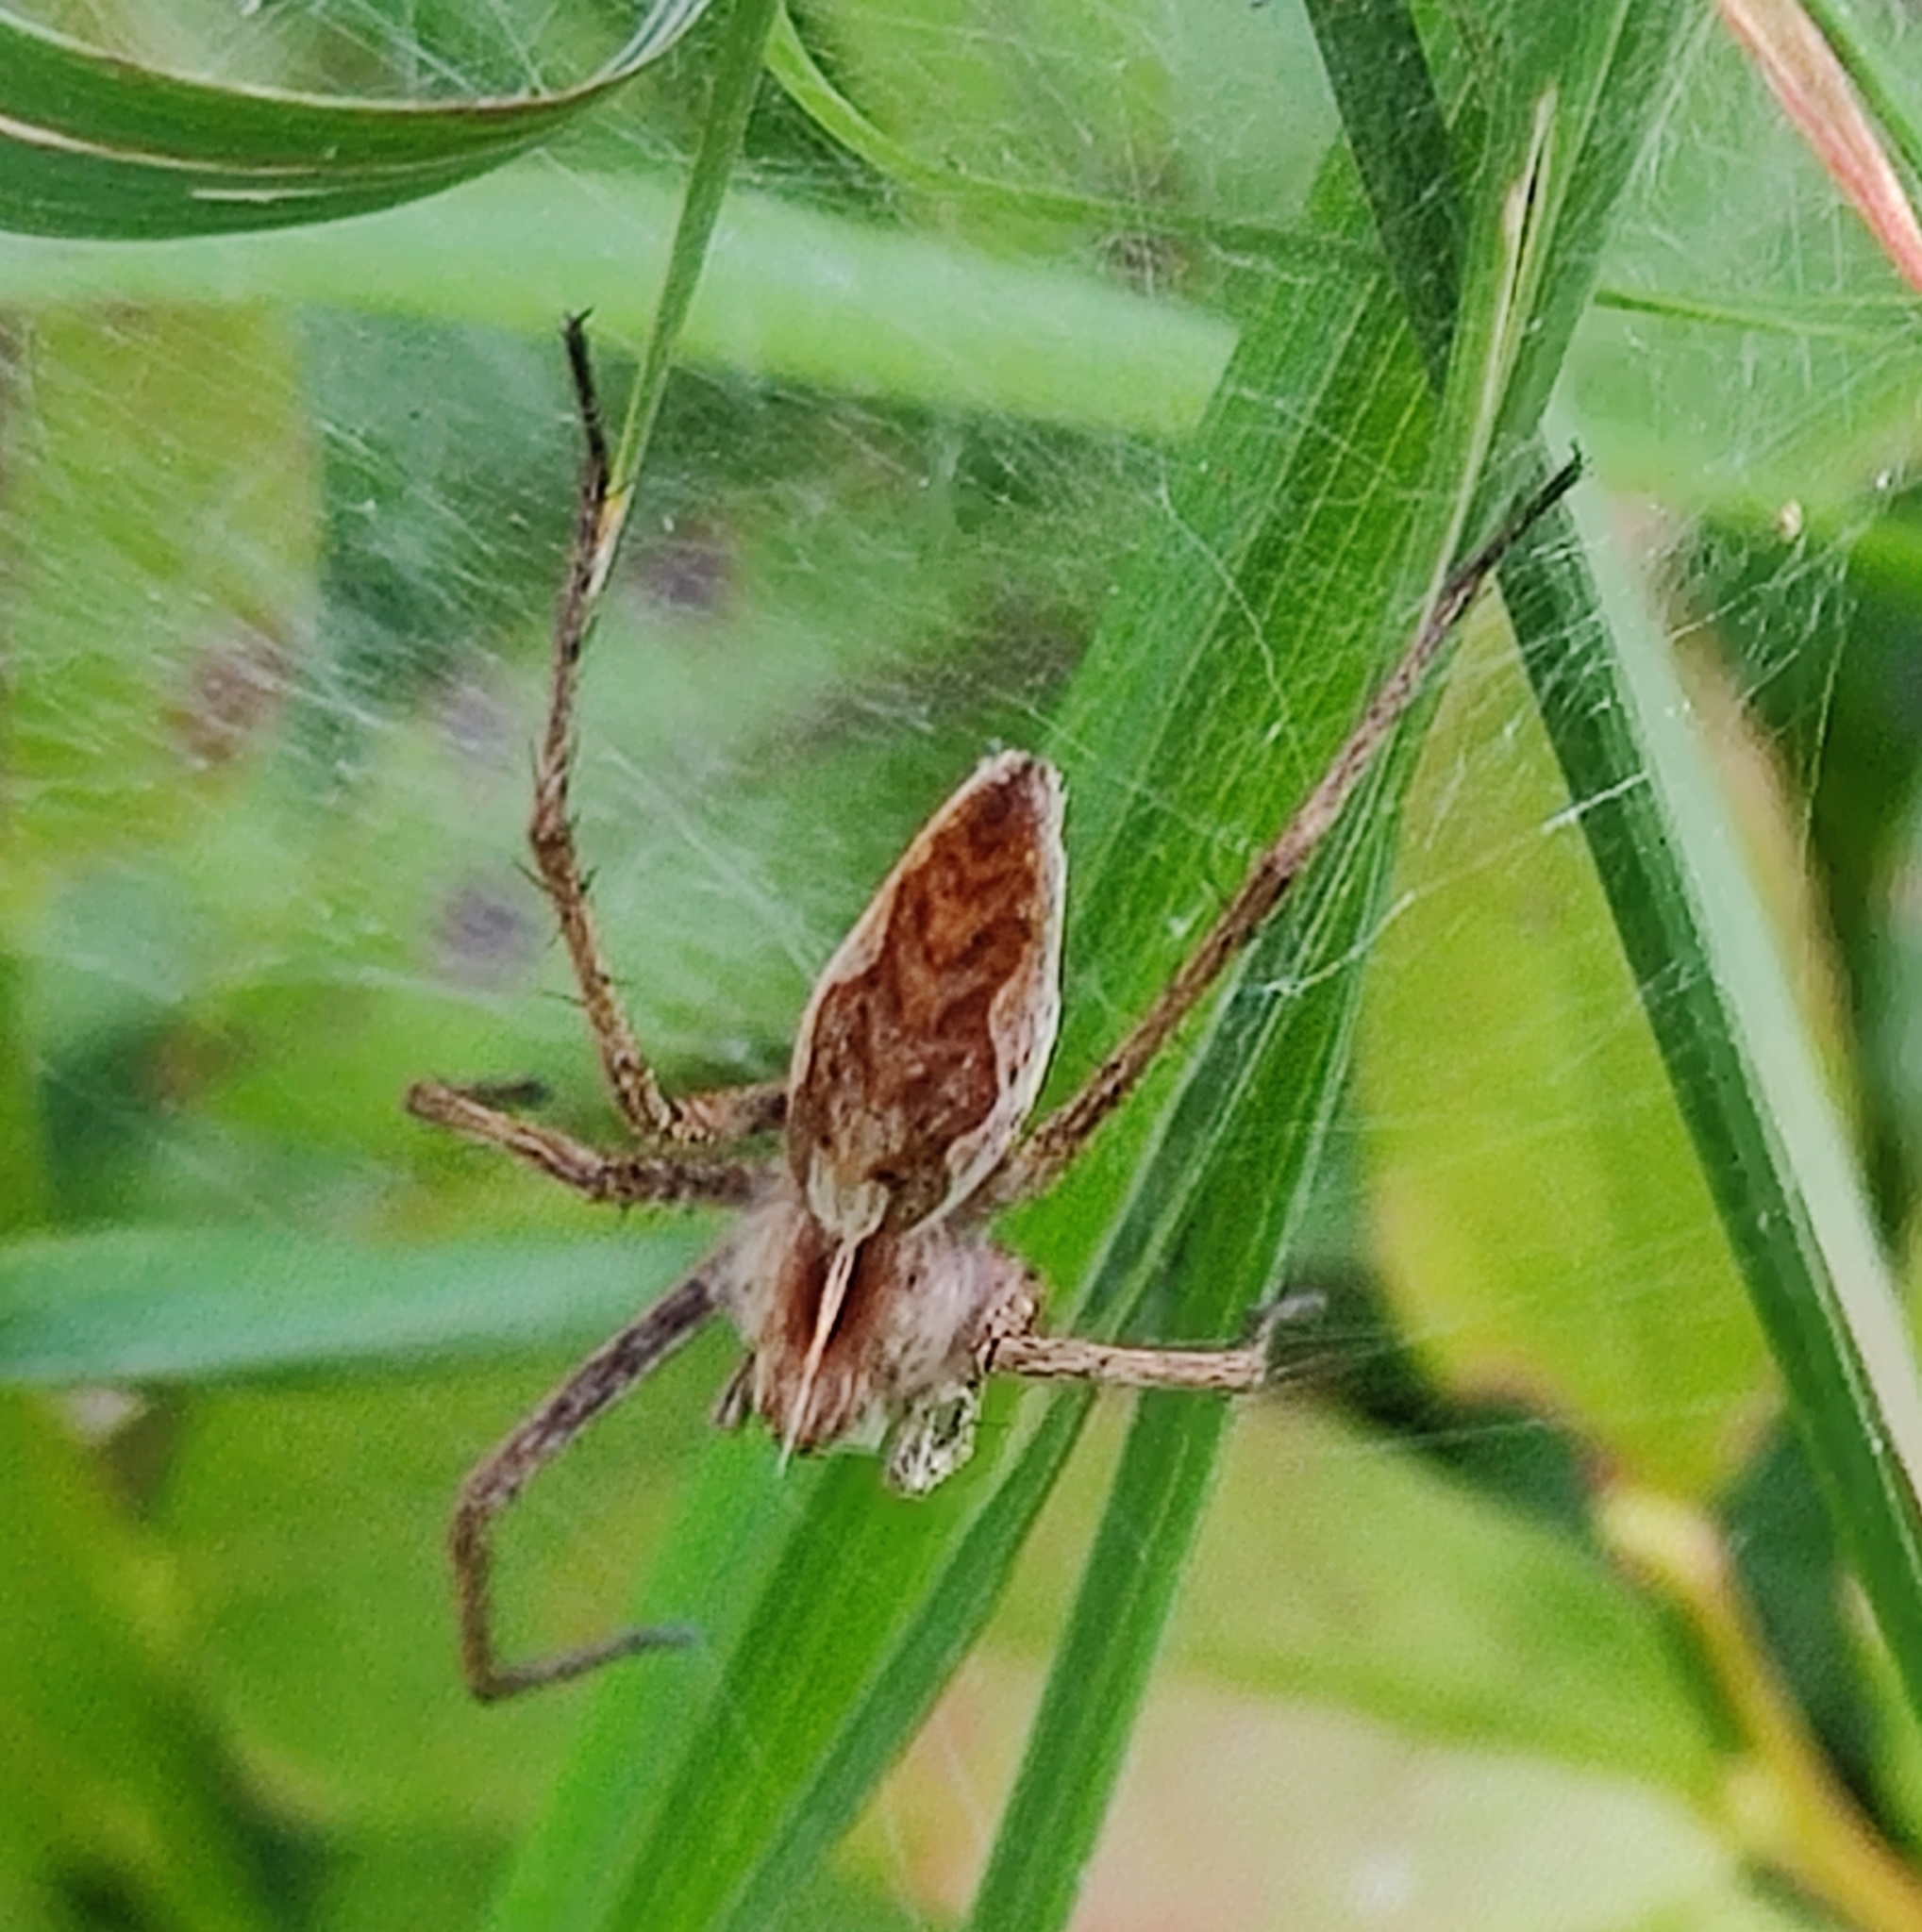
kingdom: Animalia
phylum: Arthropoda
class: Arachnida
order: Araneae
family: Pisauridae
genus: Pisaura
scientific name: Pisaura mirabilis
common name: Tent spider
